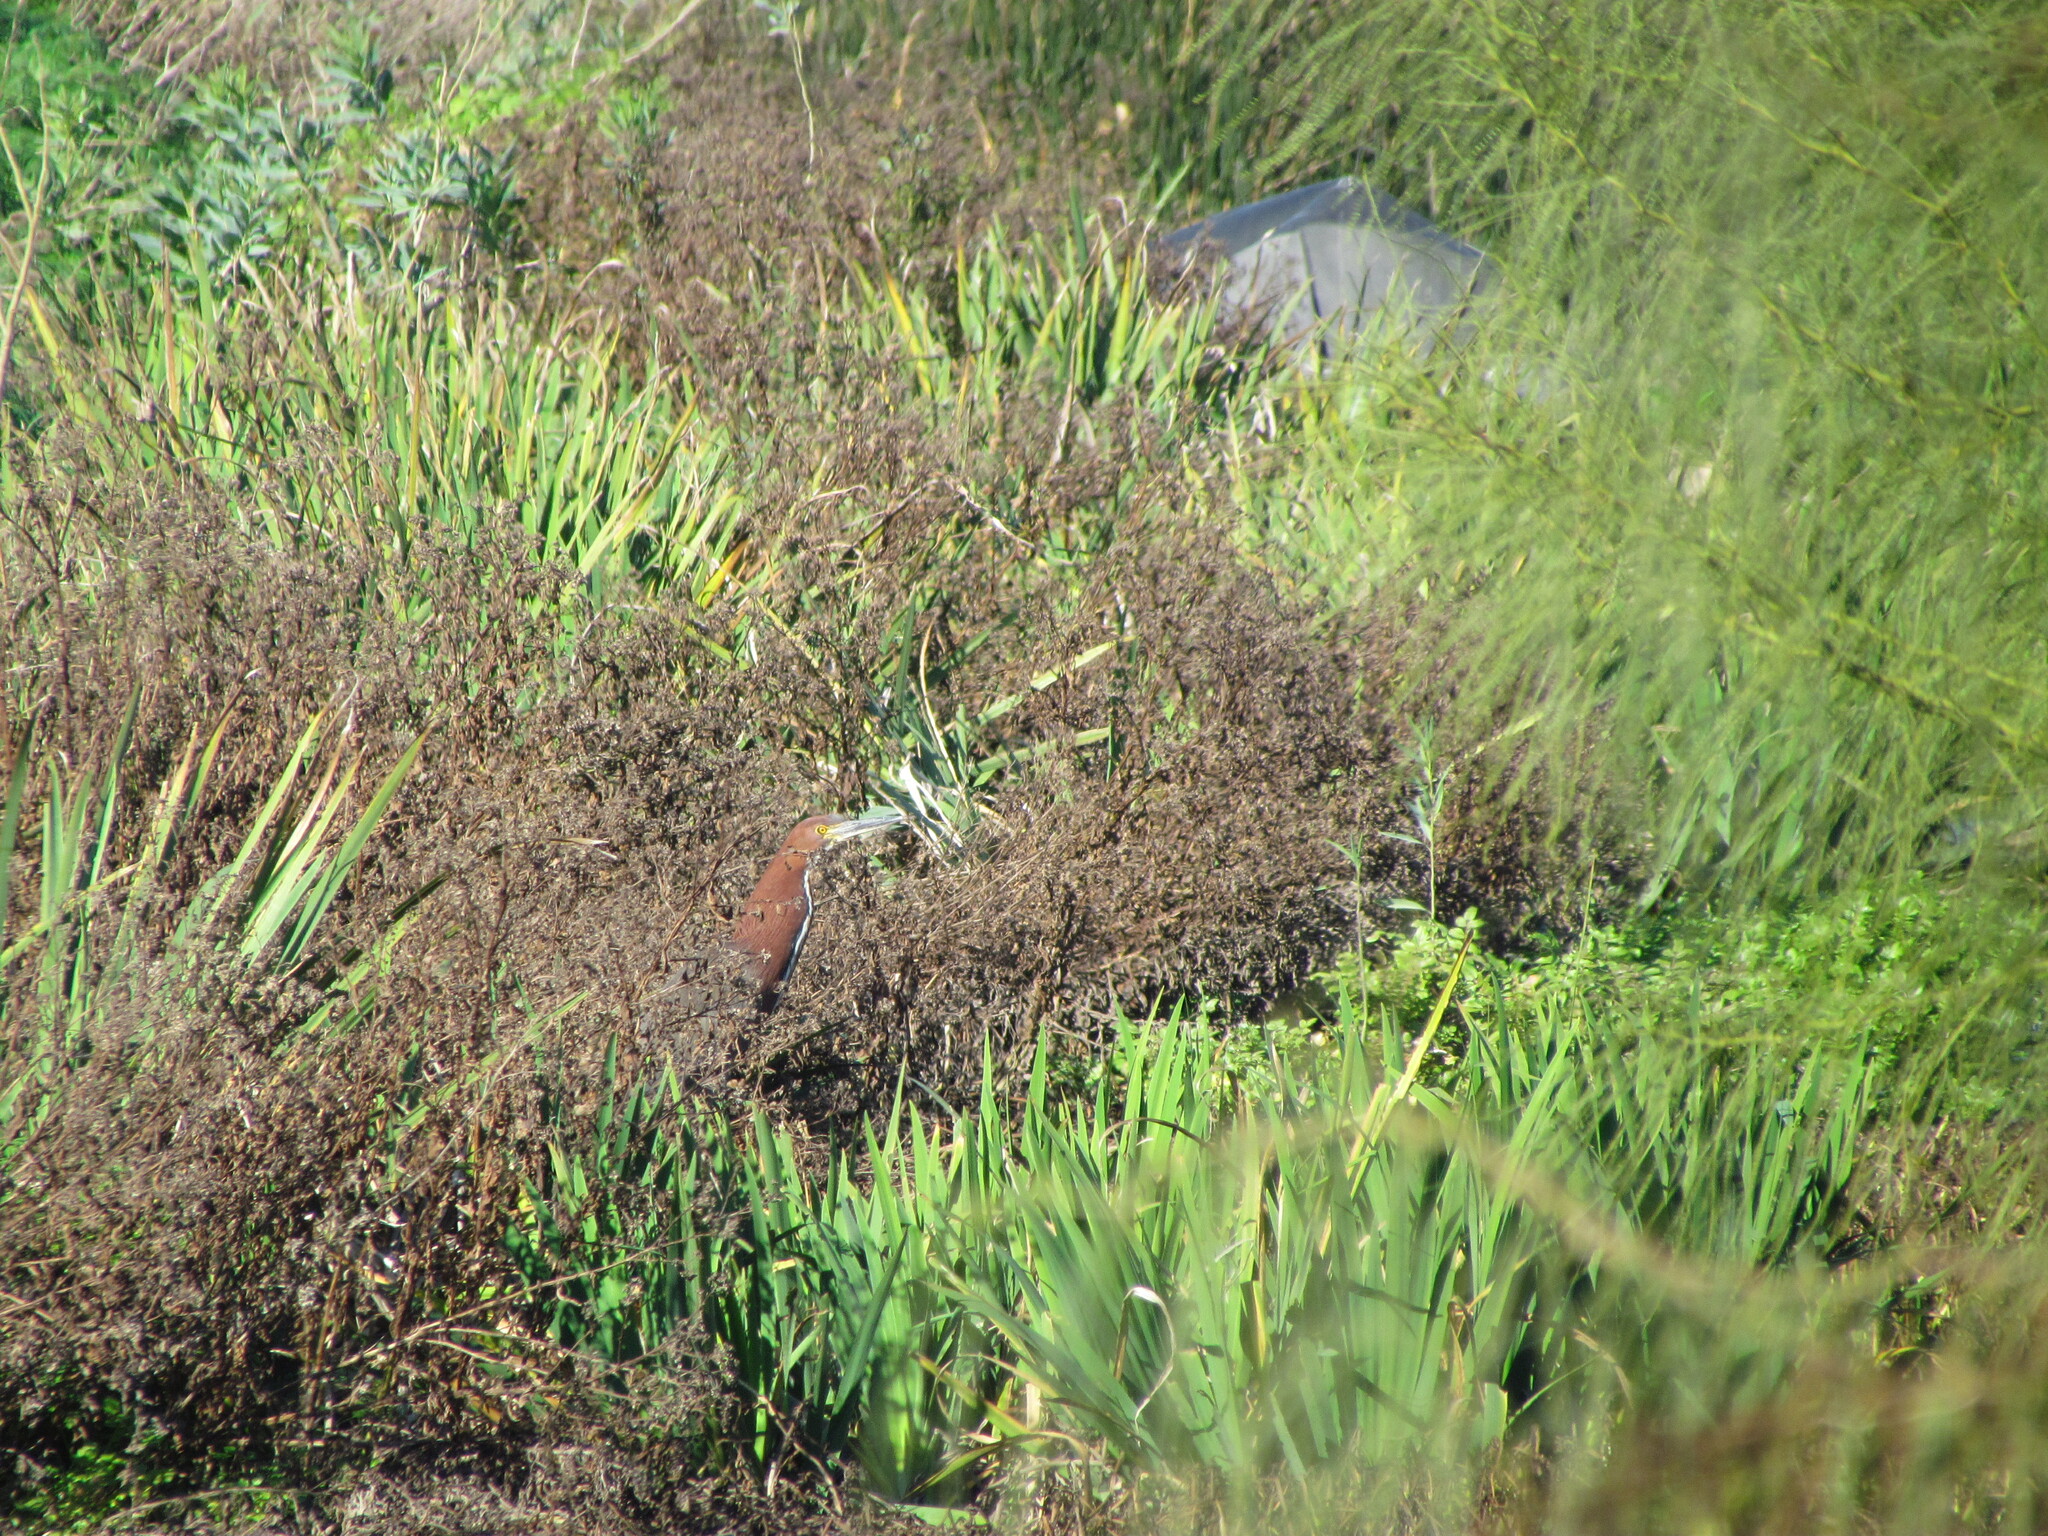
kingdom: Animalia
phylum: Chordata
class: Aves
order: Pelecaniformes
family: Ardeidae
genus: Tigrisoma
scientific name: Tigrisoma lineatum
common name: Rufescent tiger-heron
